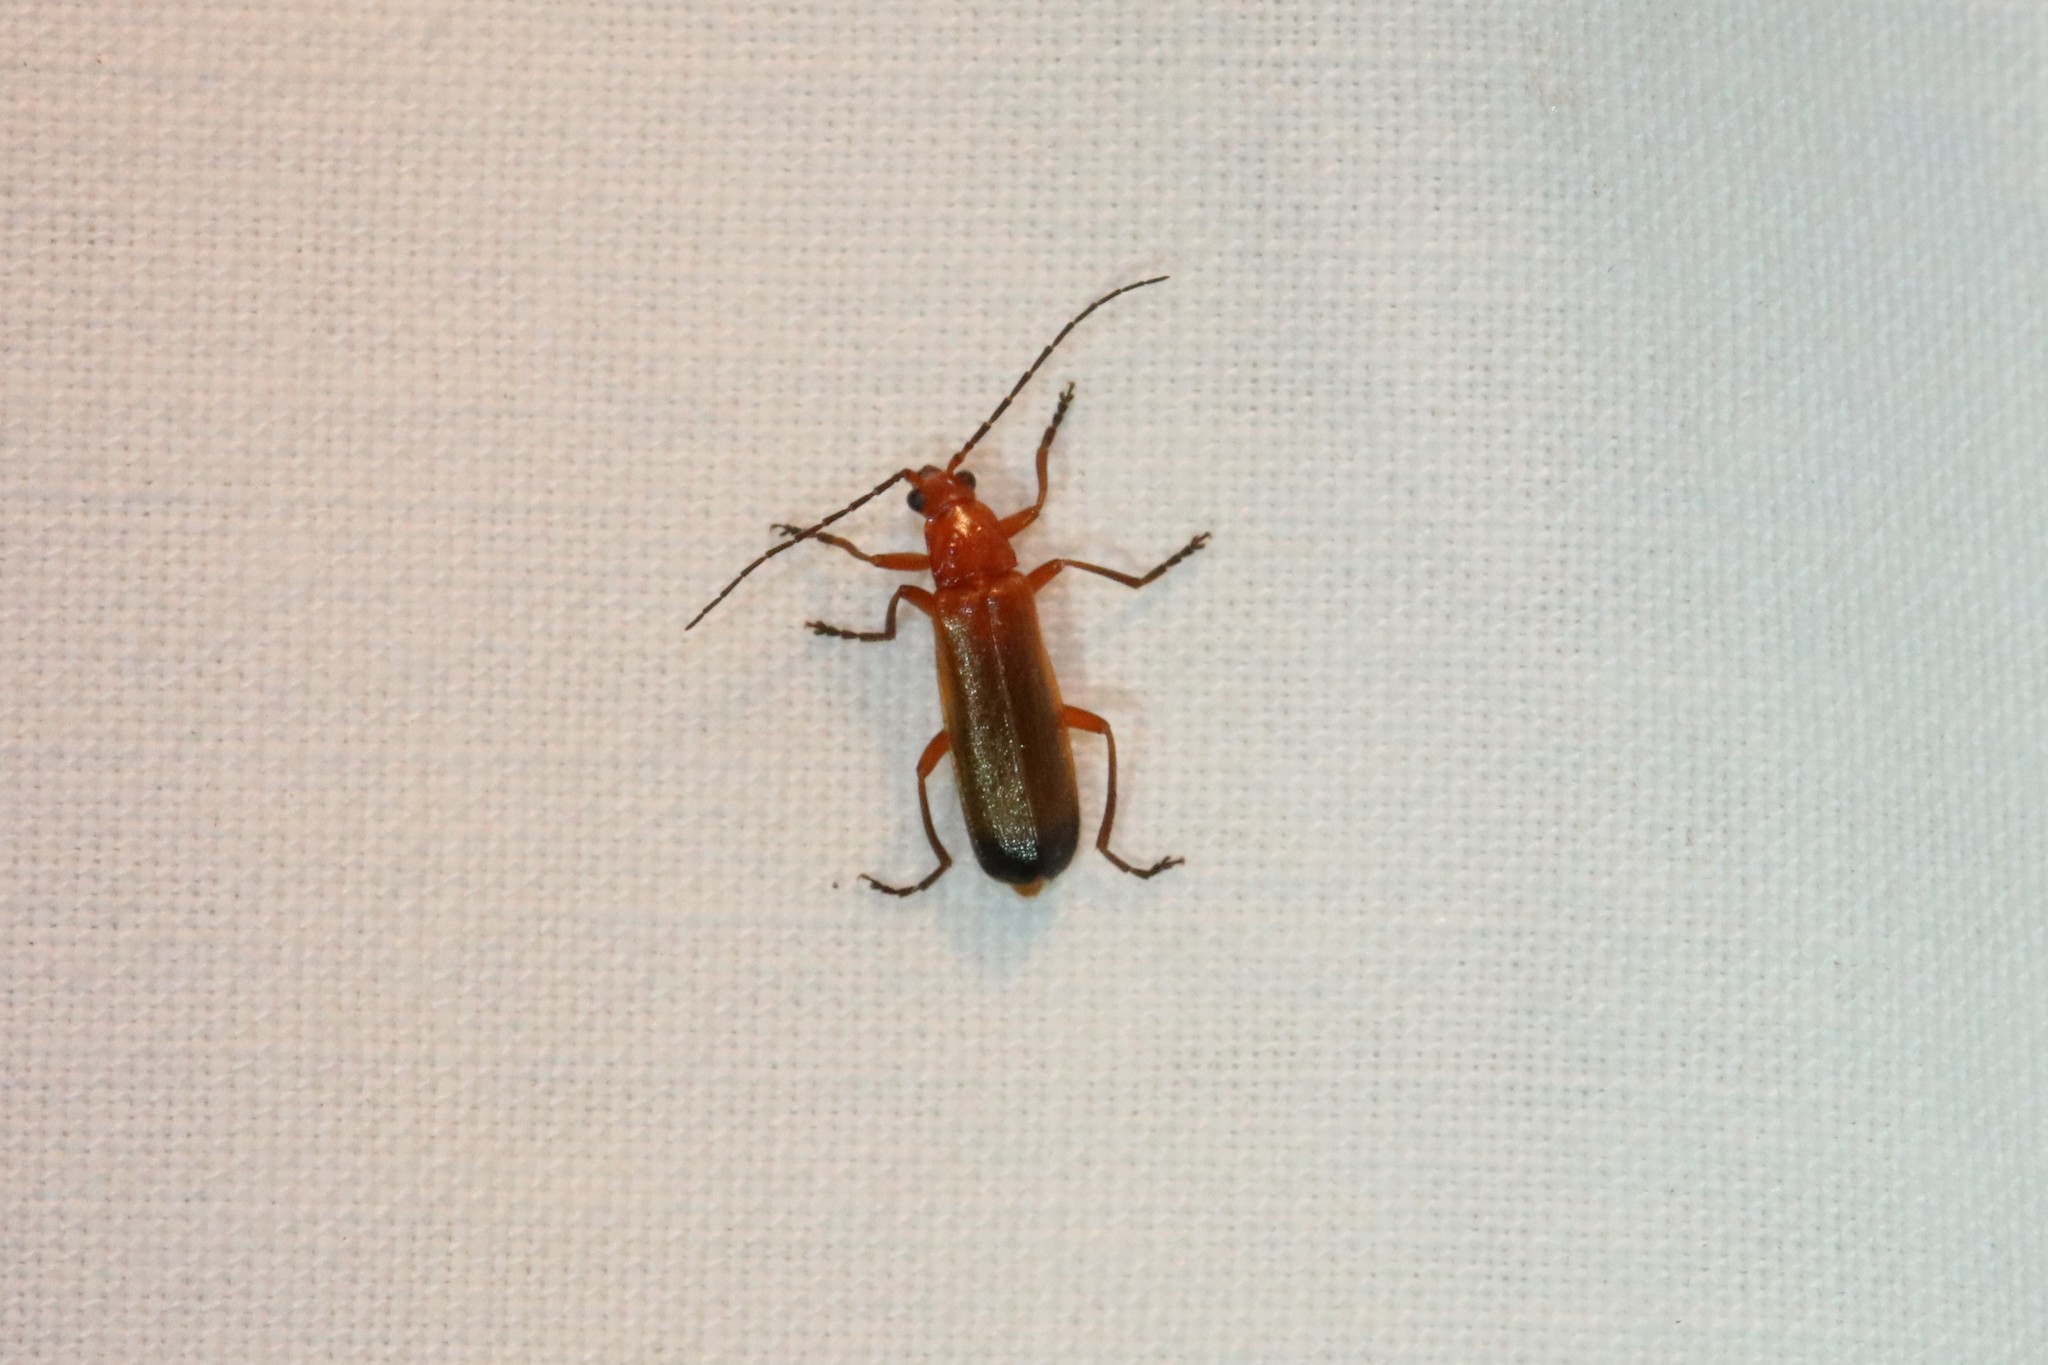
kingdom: Animalia
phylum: Arthropoda
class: Insecta
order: Coleoptera
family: Cantharidae
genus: Rhagonycha
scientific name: Rhagonycha fulva
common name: Common red soldier beetle
